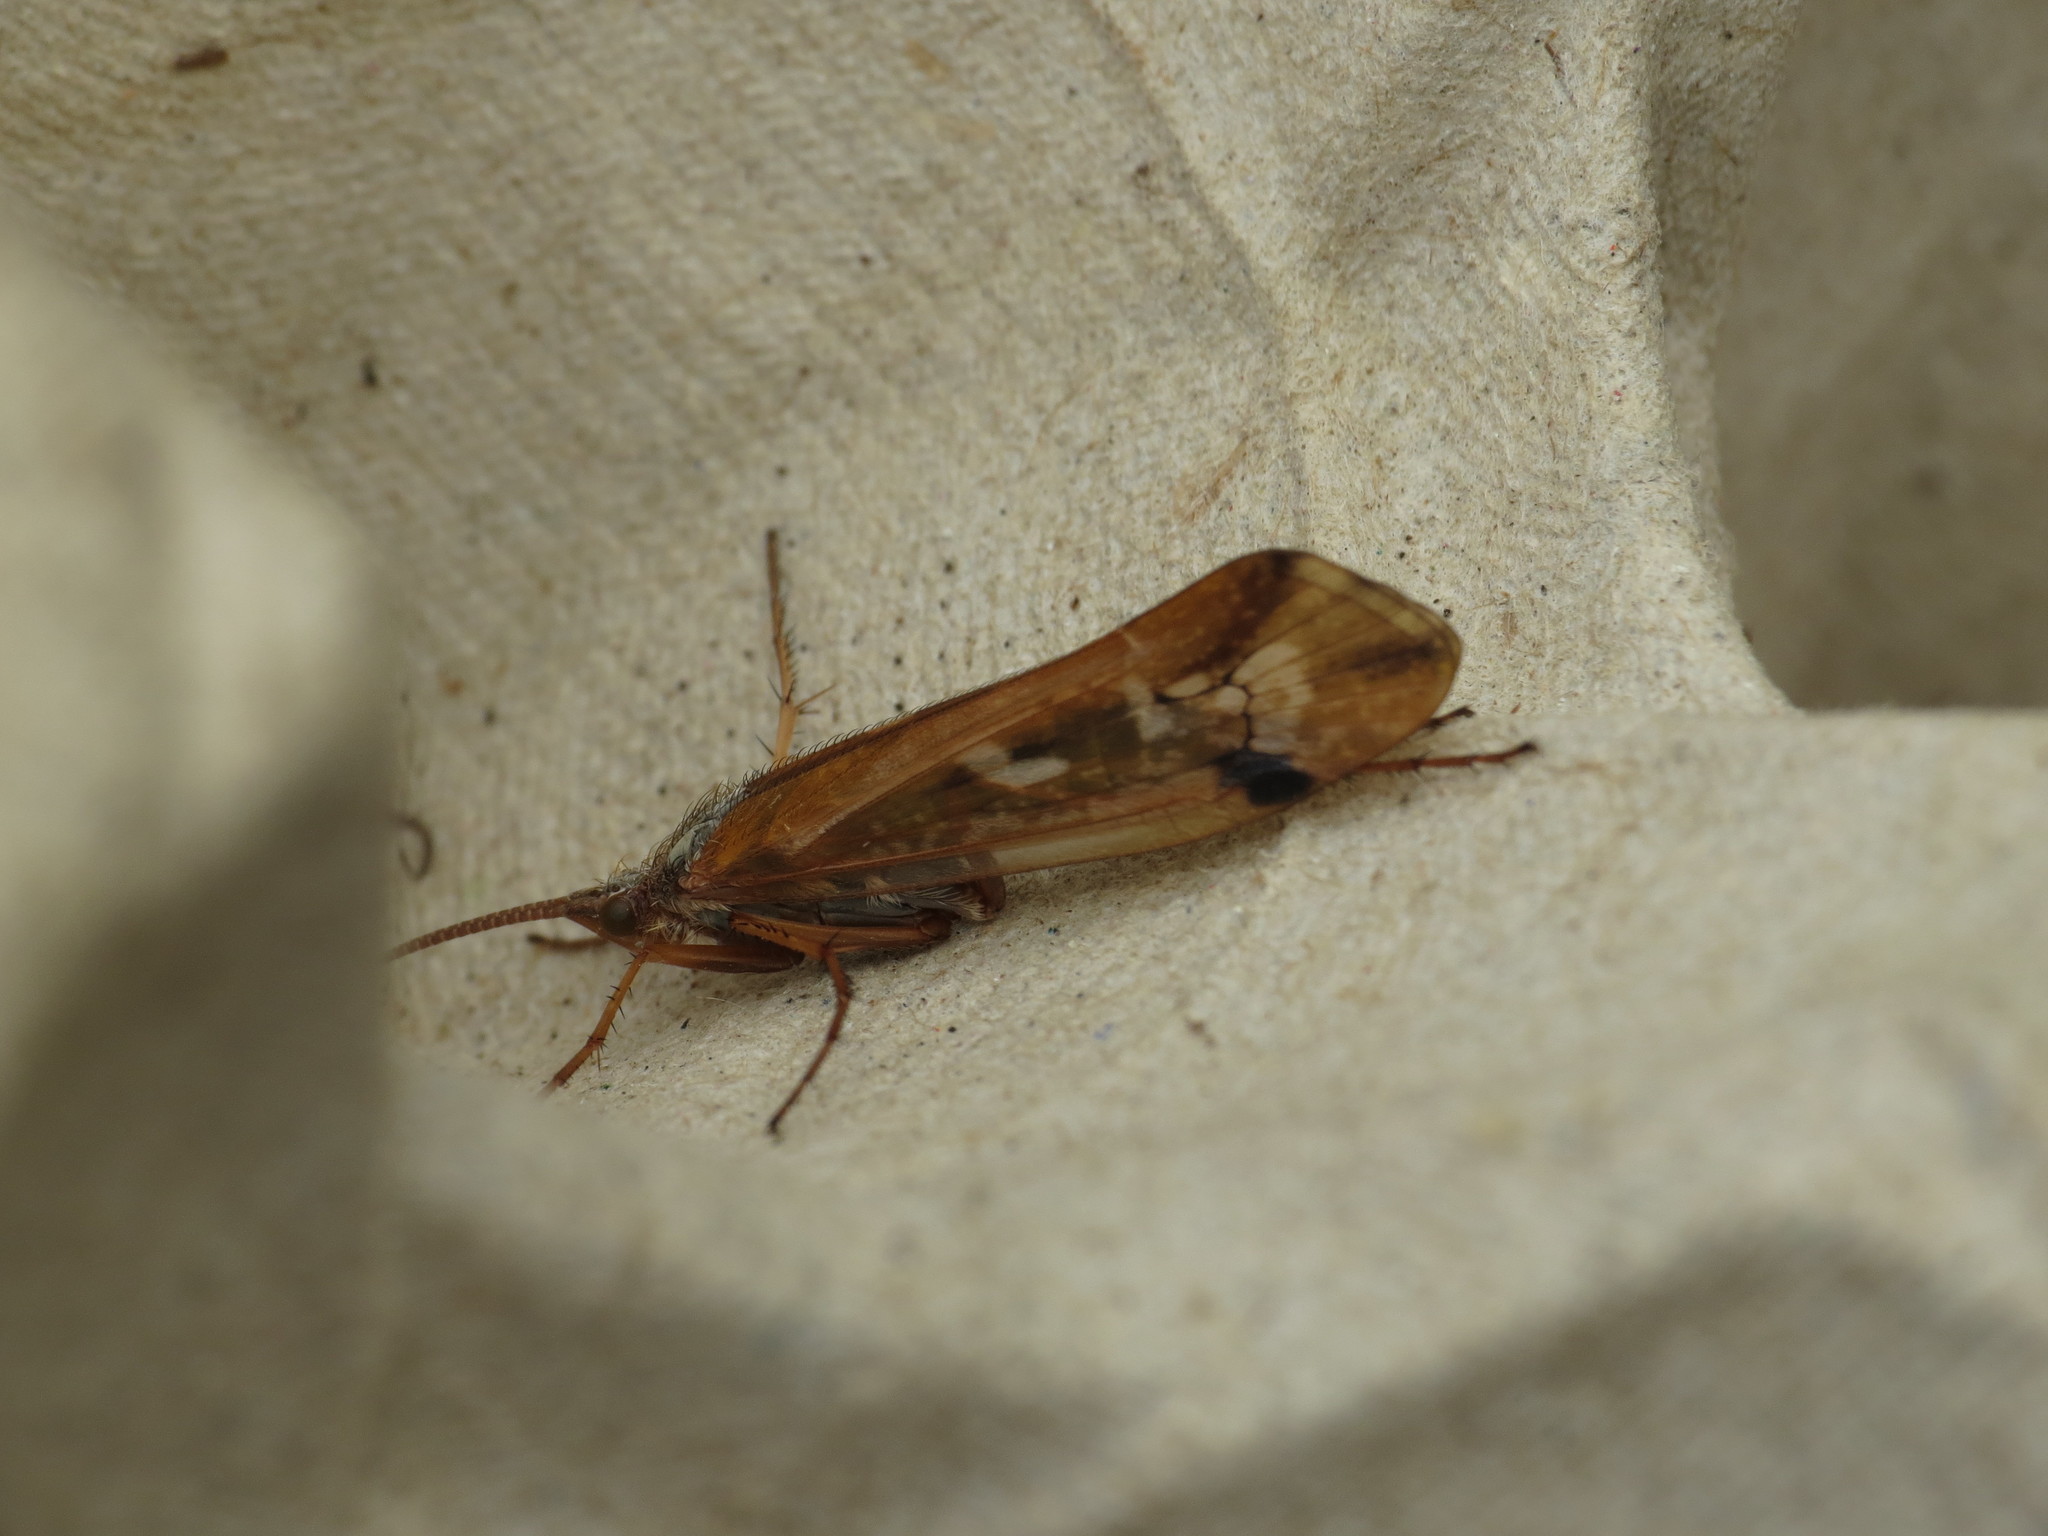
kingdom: Animalia
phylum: Arthropoda
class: Insecta
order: Trichoptera
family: Limnephilidae
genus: Limnephilus
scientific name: Limnephilus binotatus
